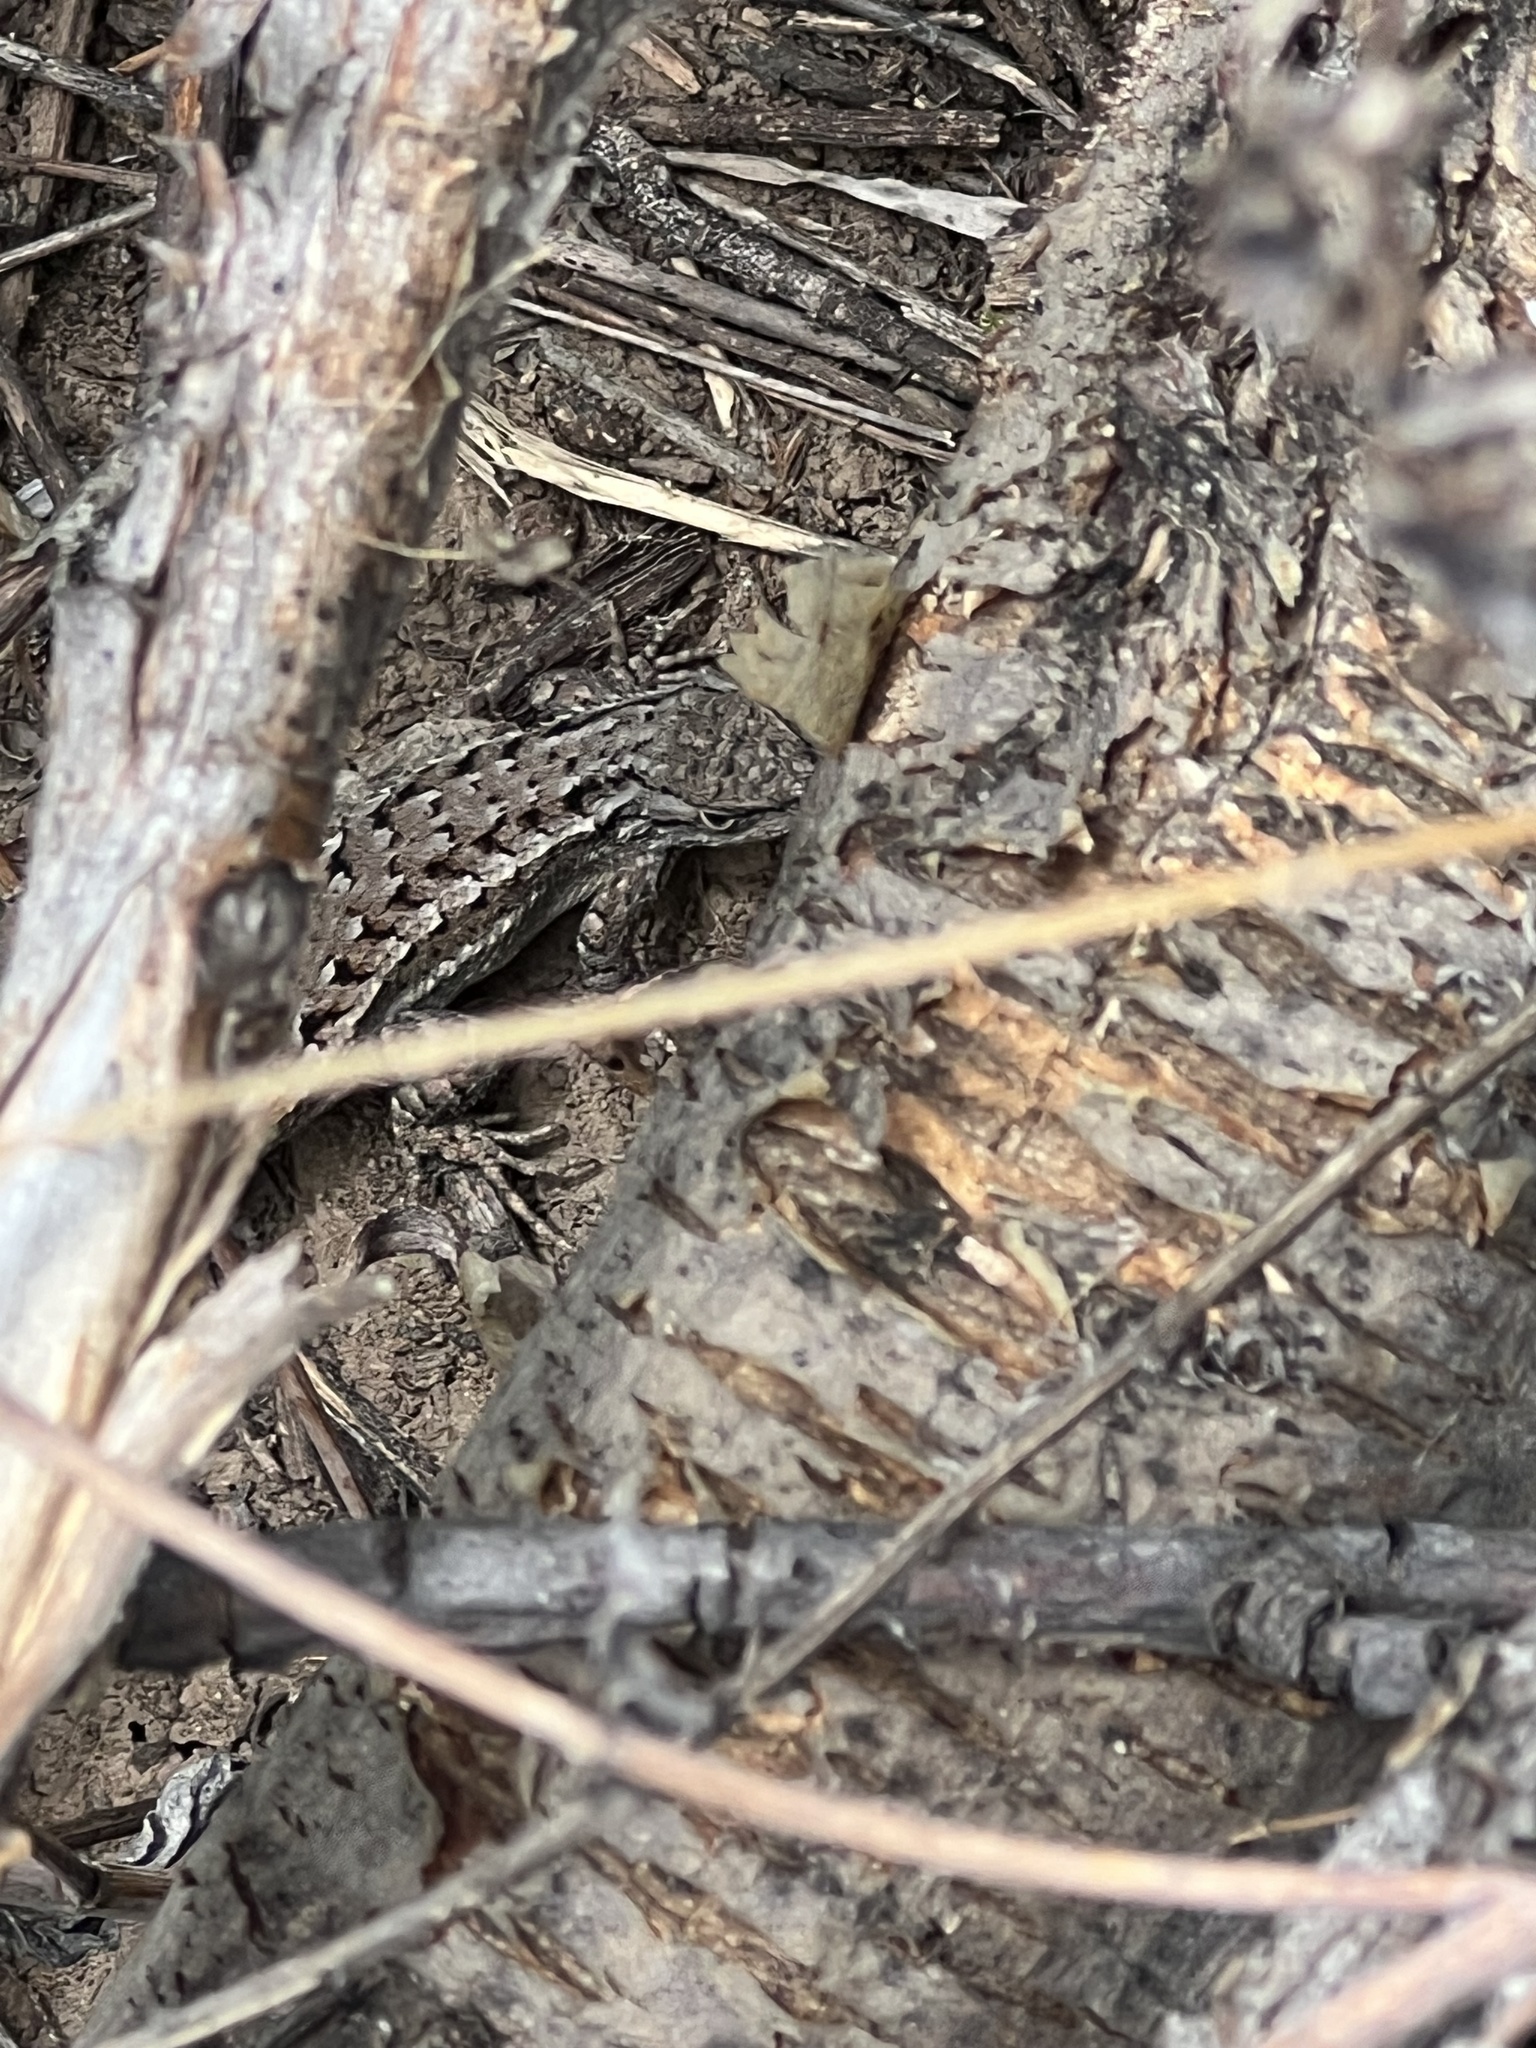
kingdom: Animalia
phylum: Chordata
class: Squamata
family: Phrynosomatidae
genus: Sceloporus
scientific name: Sceloporus cowlesi
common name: White sands prairie lizard
